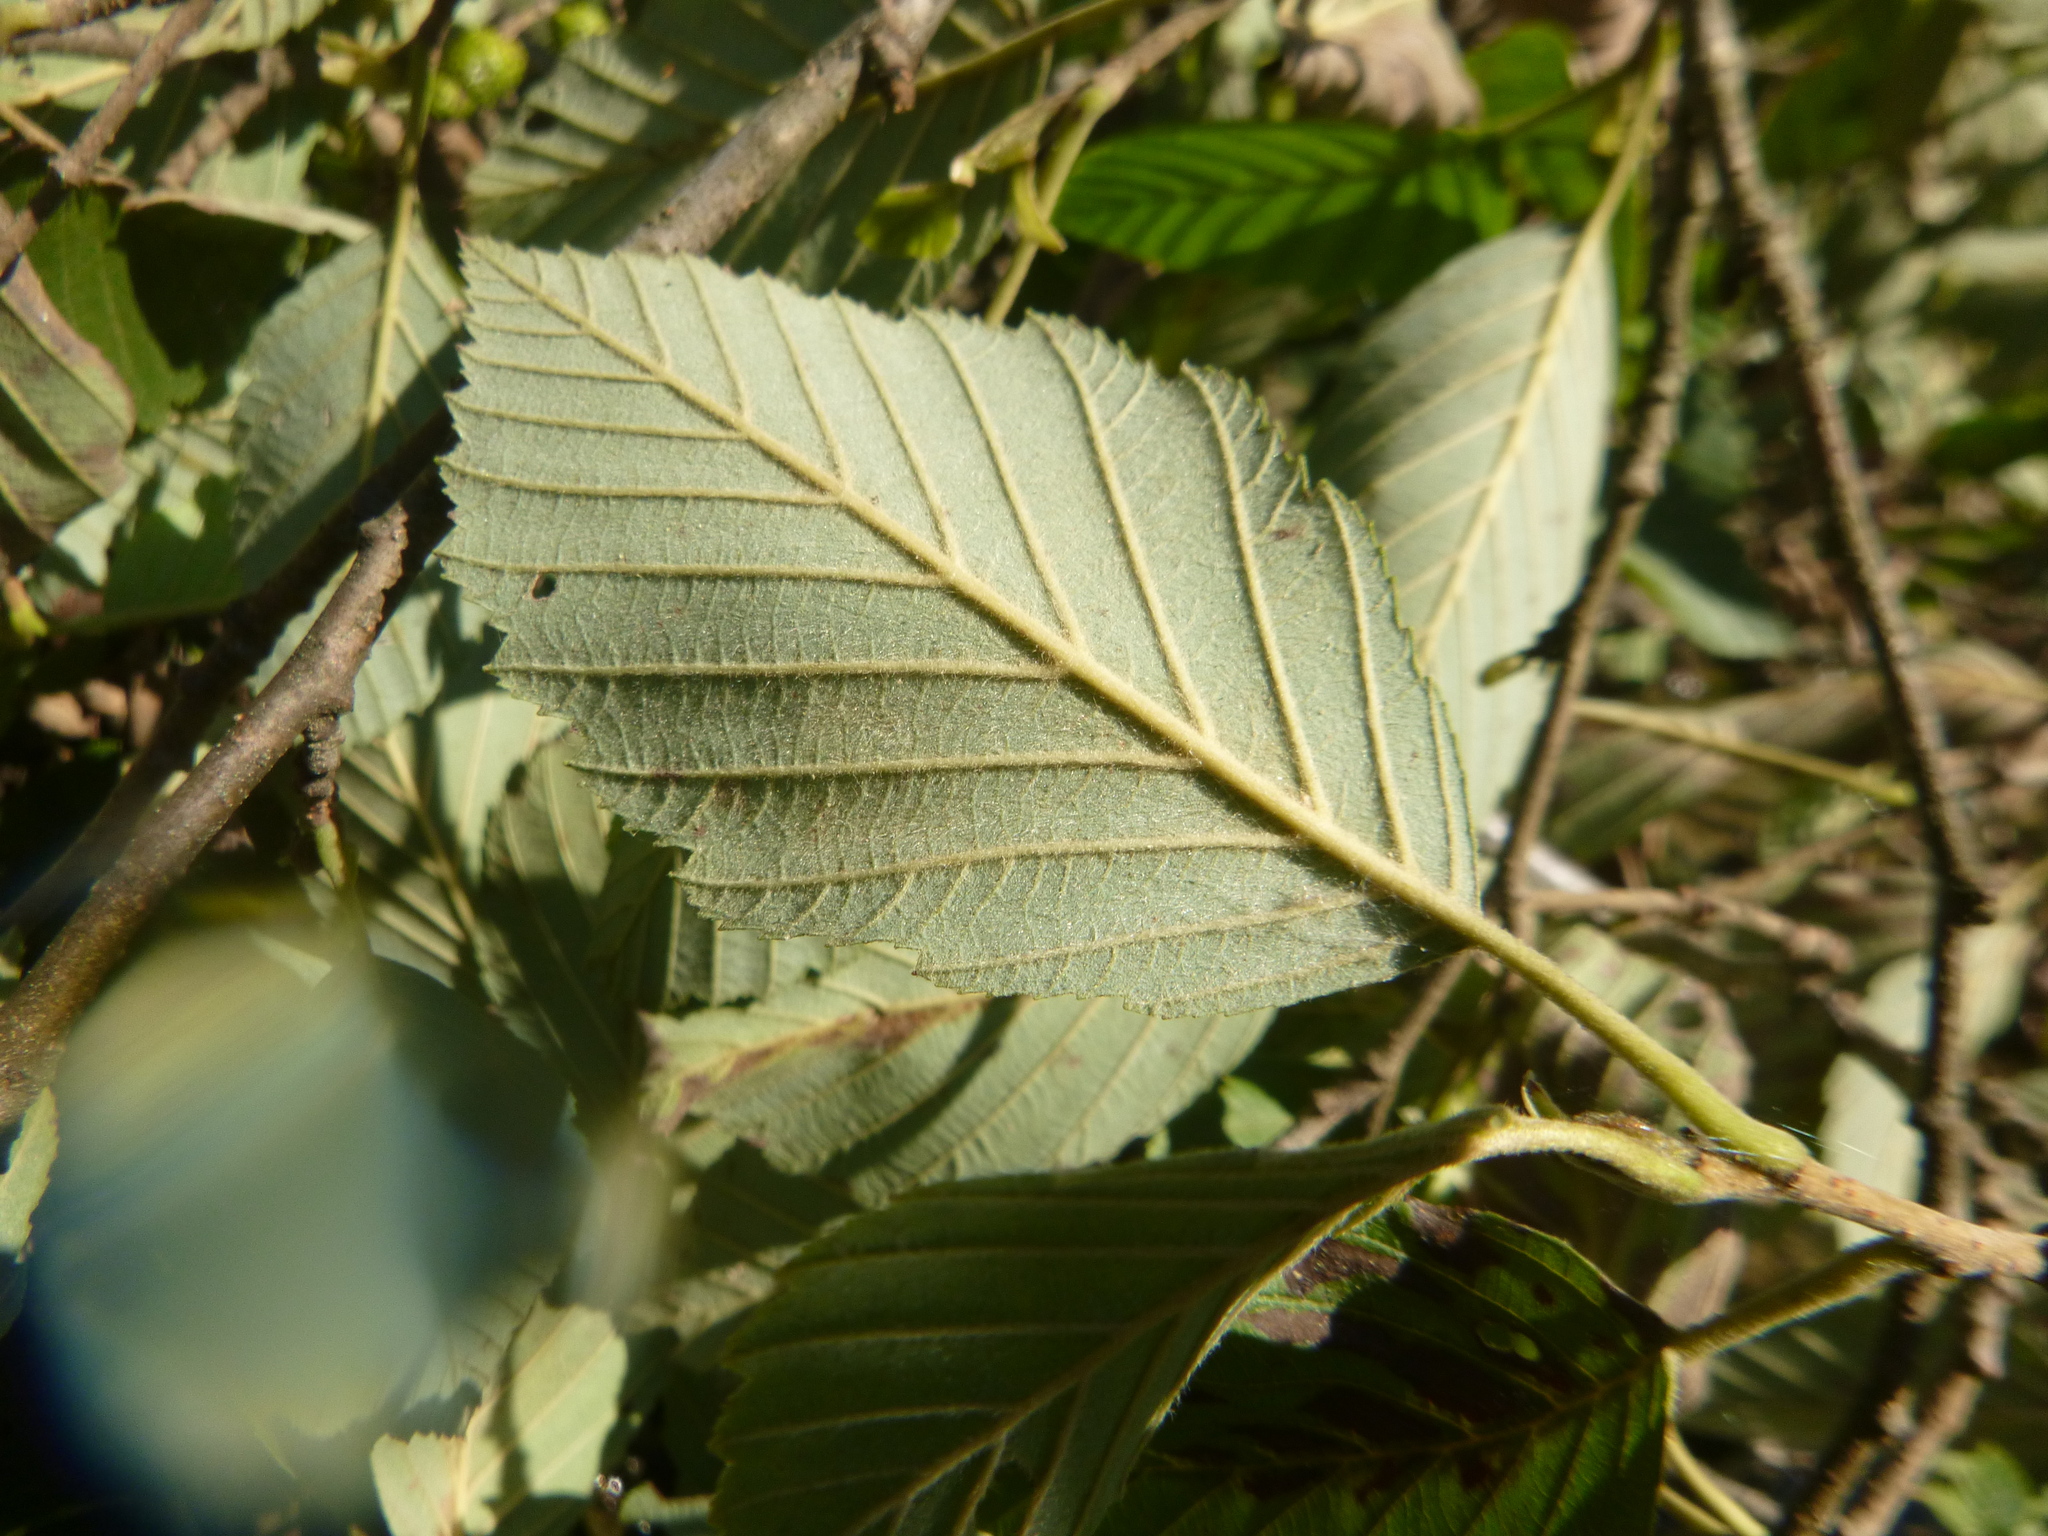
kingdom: Plantae
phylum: Tracheophyta
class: Magnoliopsida
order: Fagales
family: Betulaceae
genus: Alnus
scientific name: Alnus incana
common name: Grey alder
